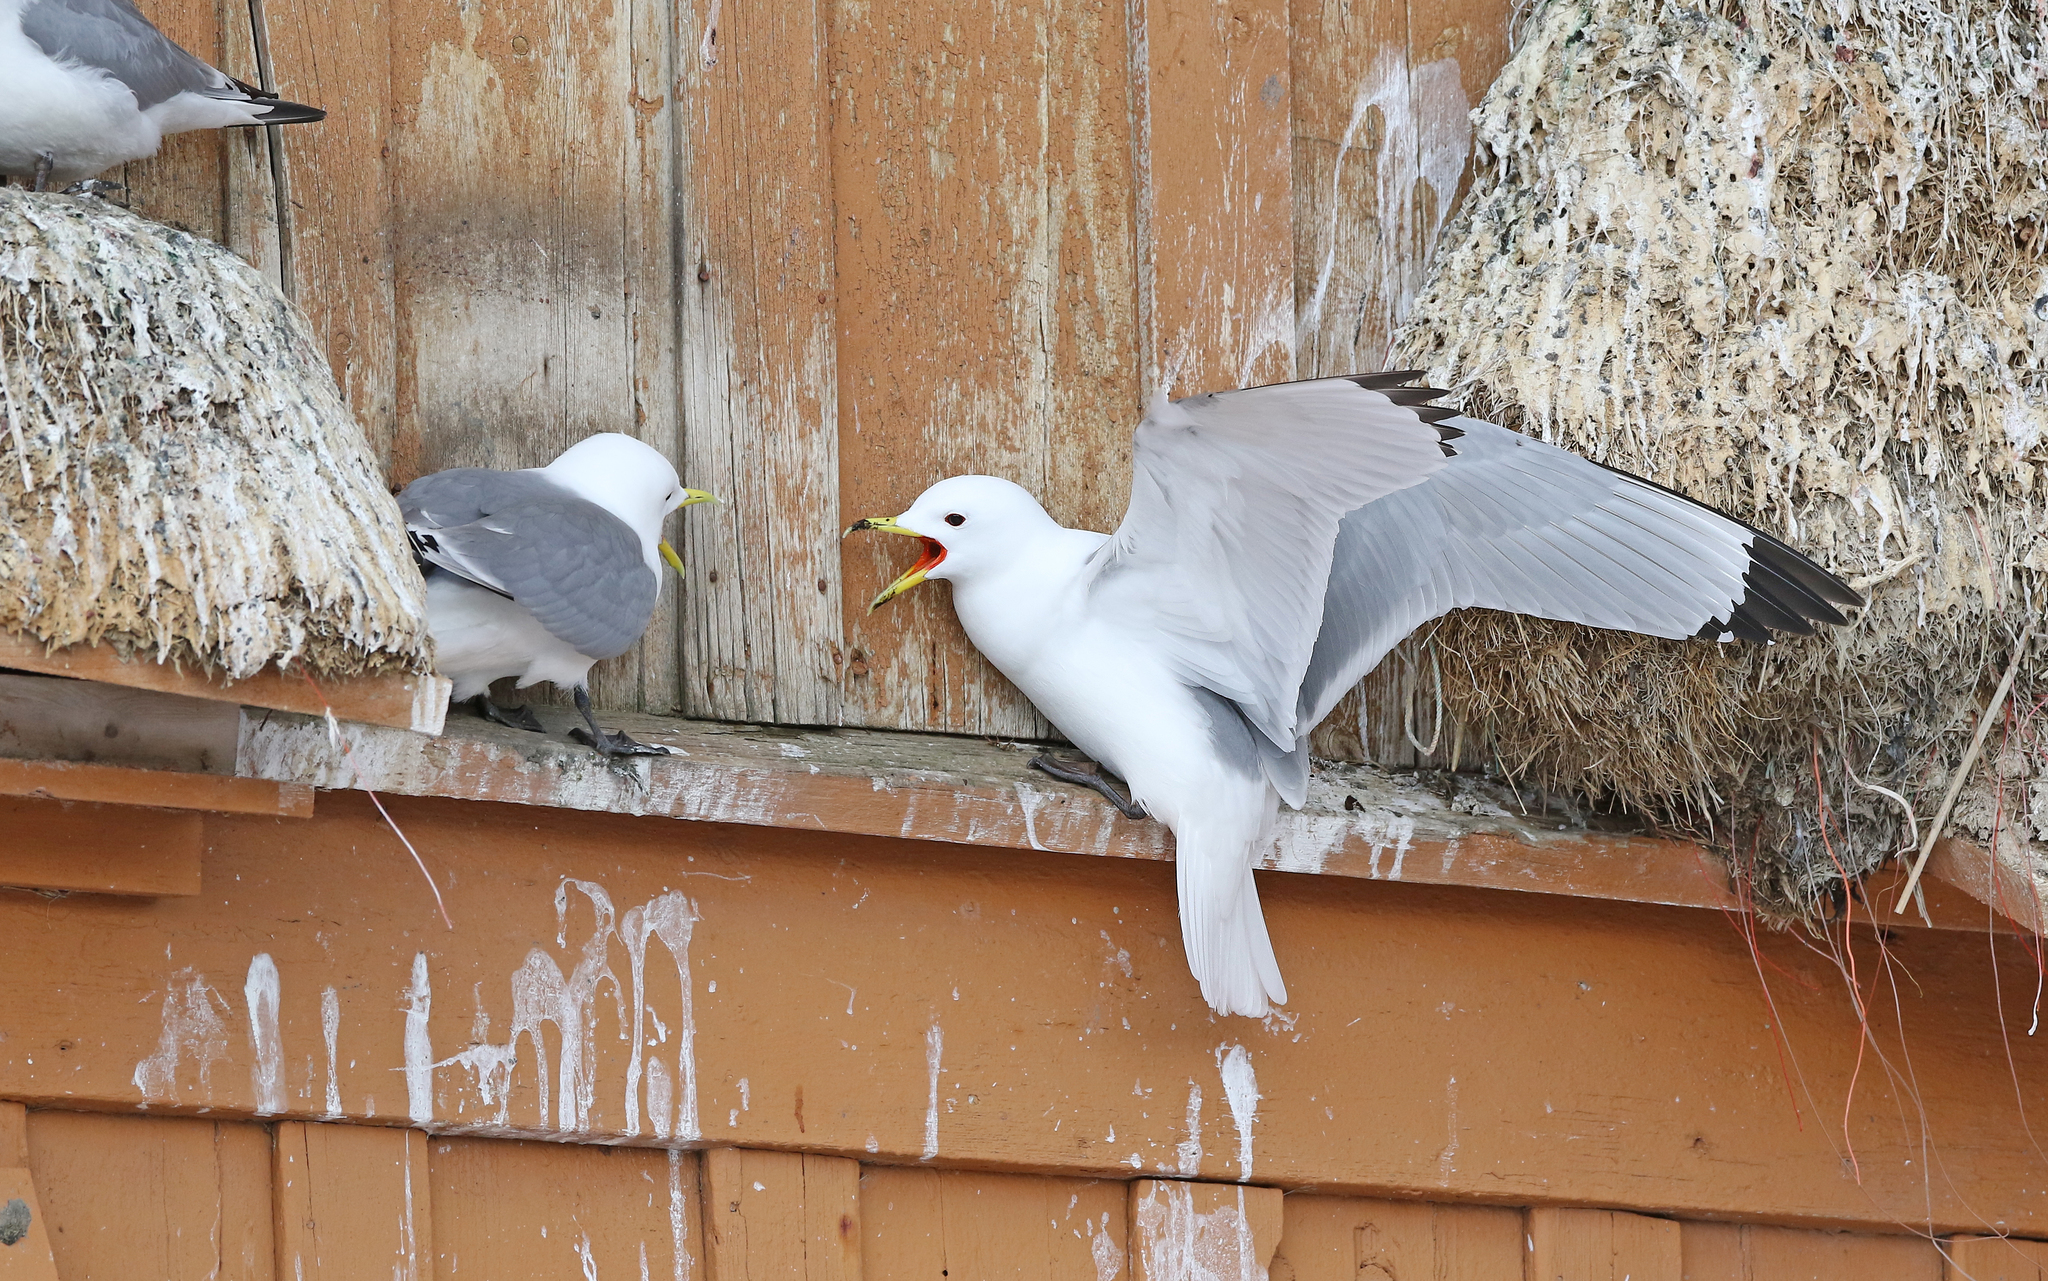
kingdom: Animalia
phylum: Chordata
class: Aves
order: Charadriiformes
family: Laridae
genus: Rissa
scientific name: Rissa tridactyla
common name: Black-legged kittiwake
